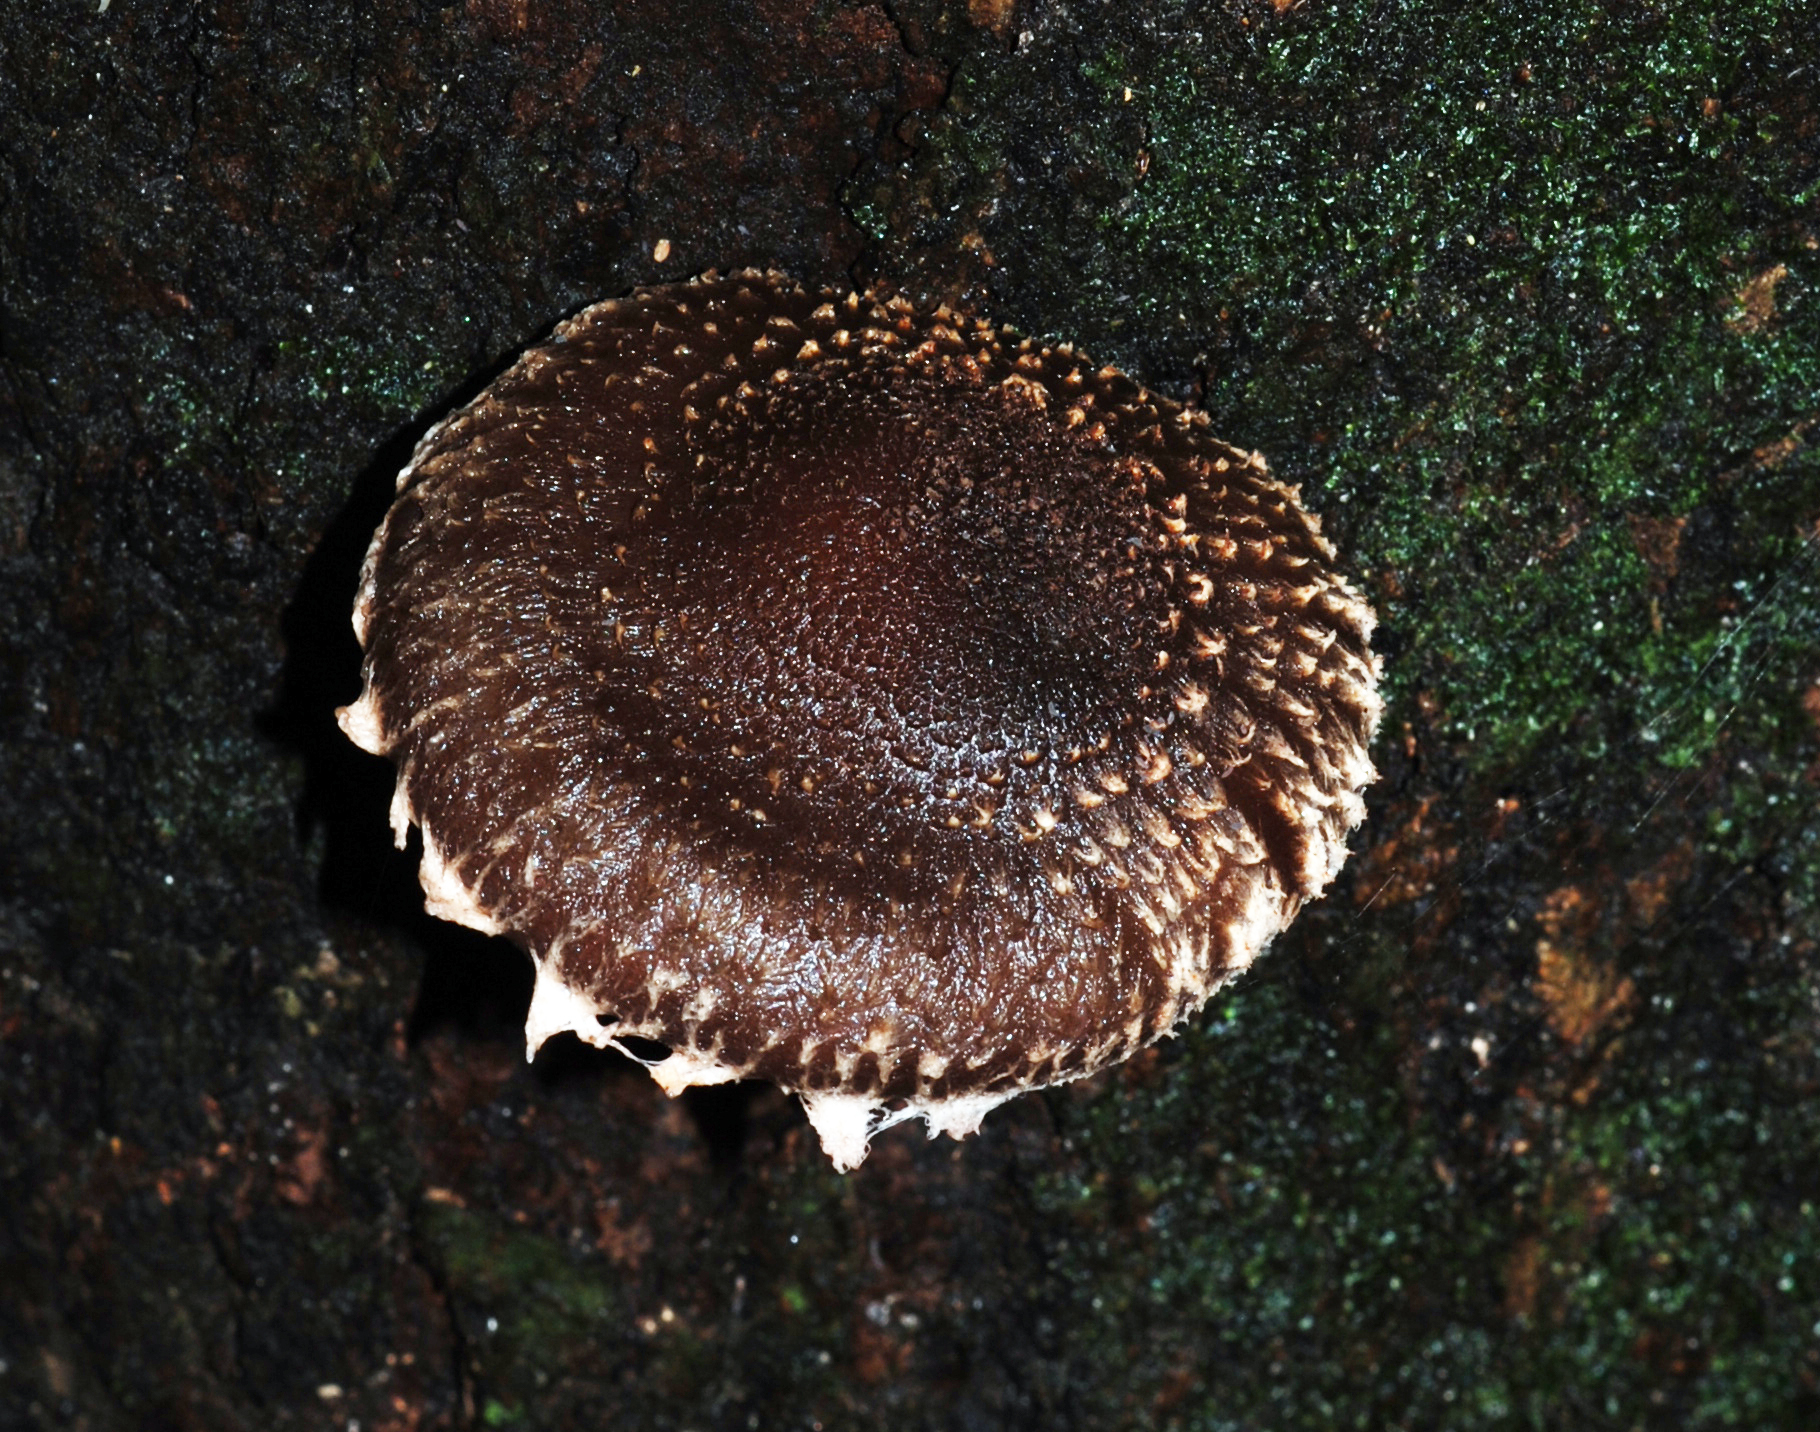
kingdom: Fungi
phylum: Basidiomycota
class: Agaricomycetes
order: Agaricales
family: Omphalotaceae
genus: Lentinula
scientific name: Lentinula novae-zelandiae
